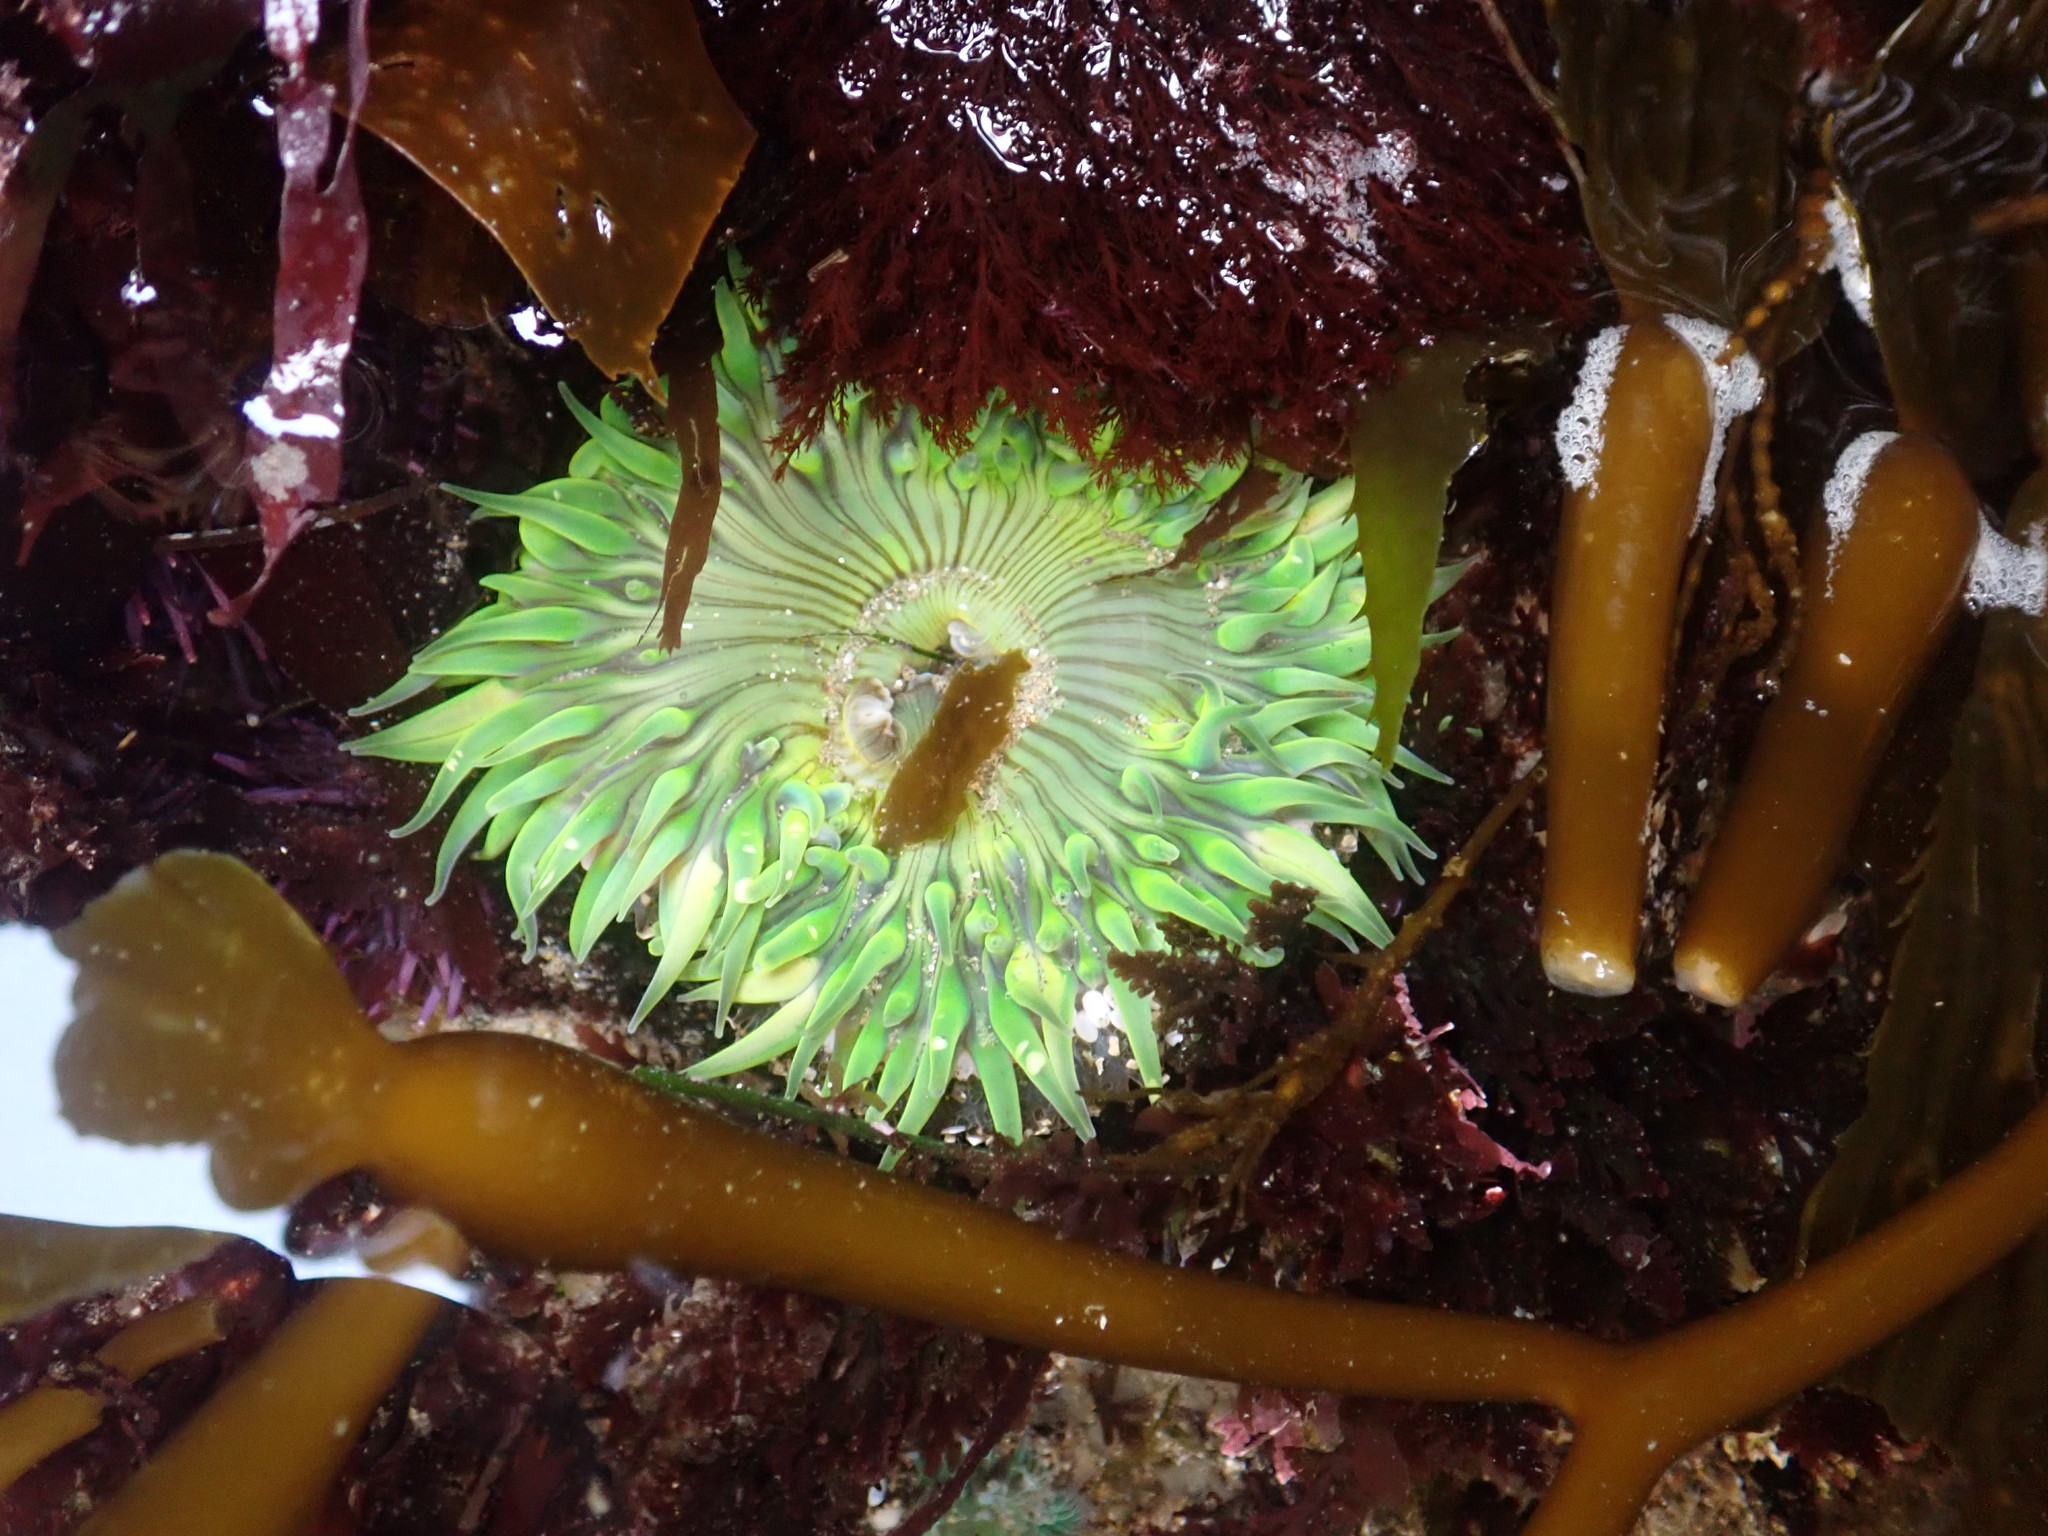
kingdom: Animalia
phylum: Cnidaria
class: Anthozoa
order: Actiniaria
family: Actiniidae
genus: Anthopleura
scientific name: Anthopleura sola
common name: Sun anemone
